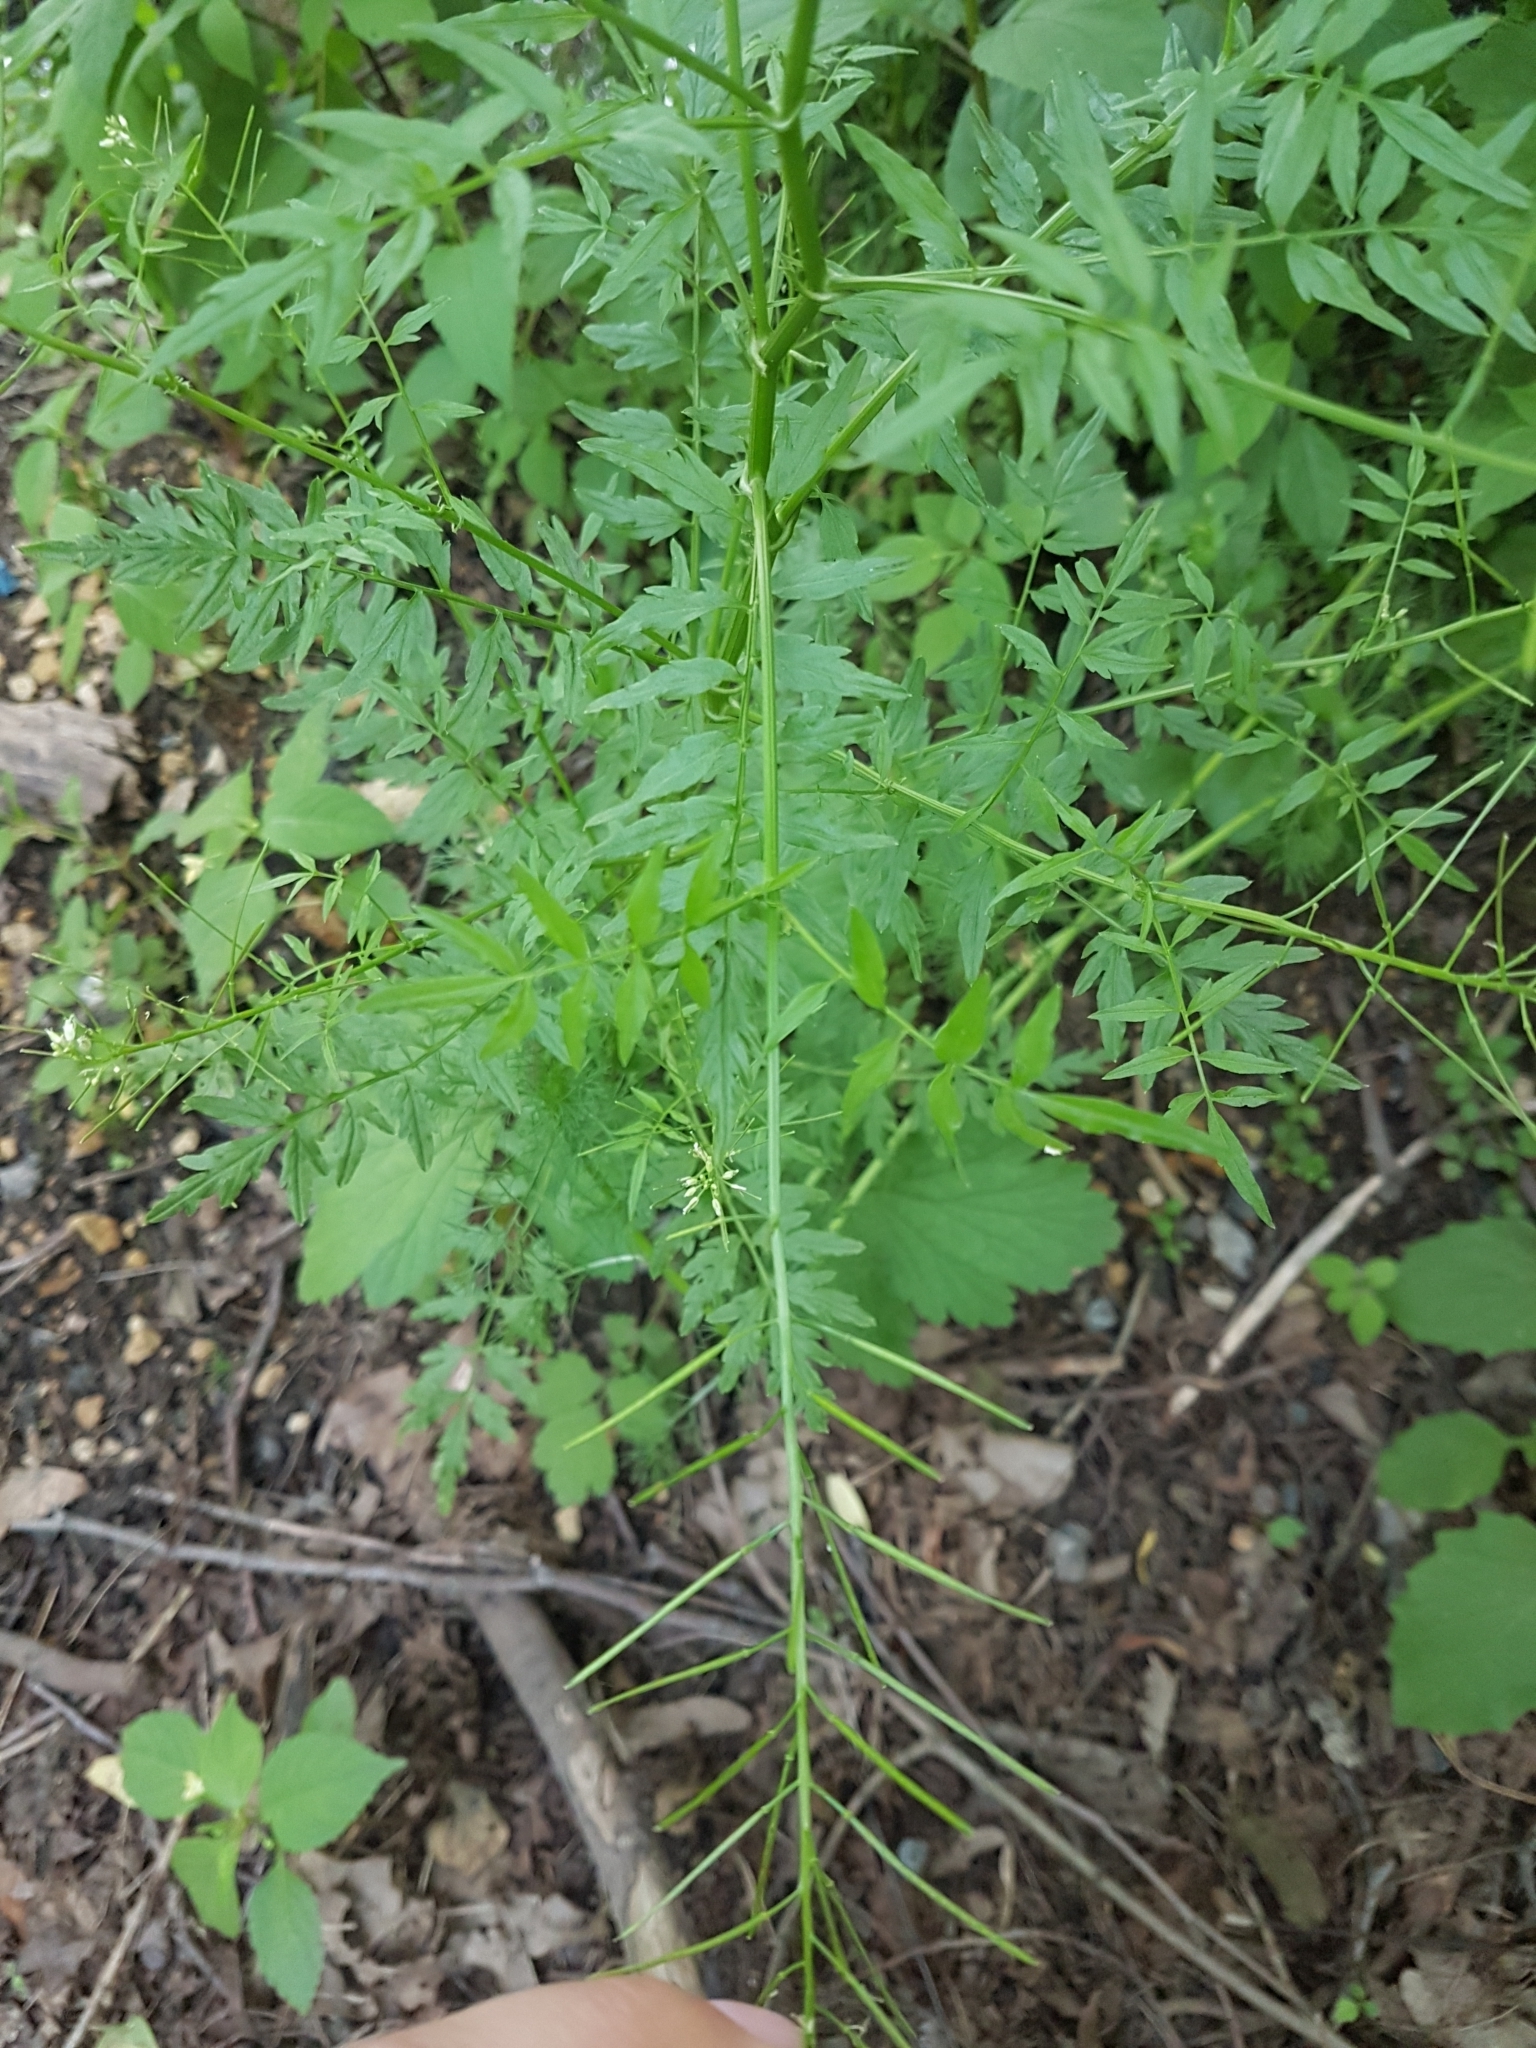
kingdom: Plantae
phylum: Tracheophyta
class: Magnoliopsida
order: Brassicales
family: Brassicaceae
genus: Cardamine
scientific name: Cardamine impatiens
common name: Narrow-leaved bitter-cress
